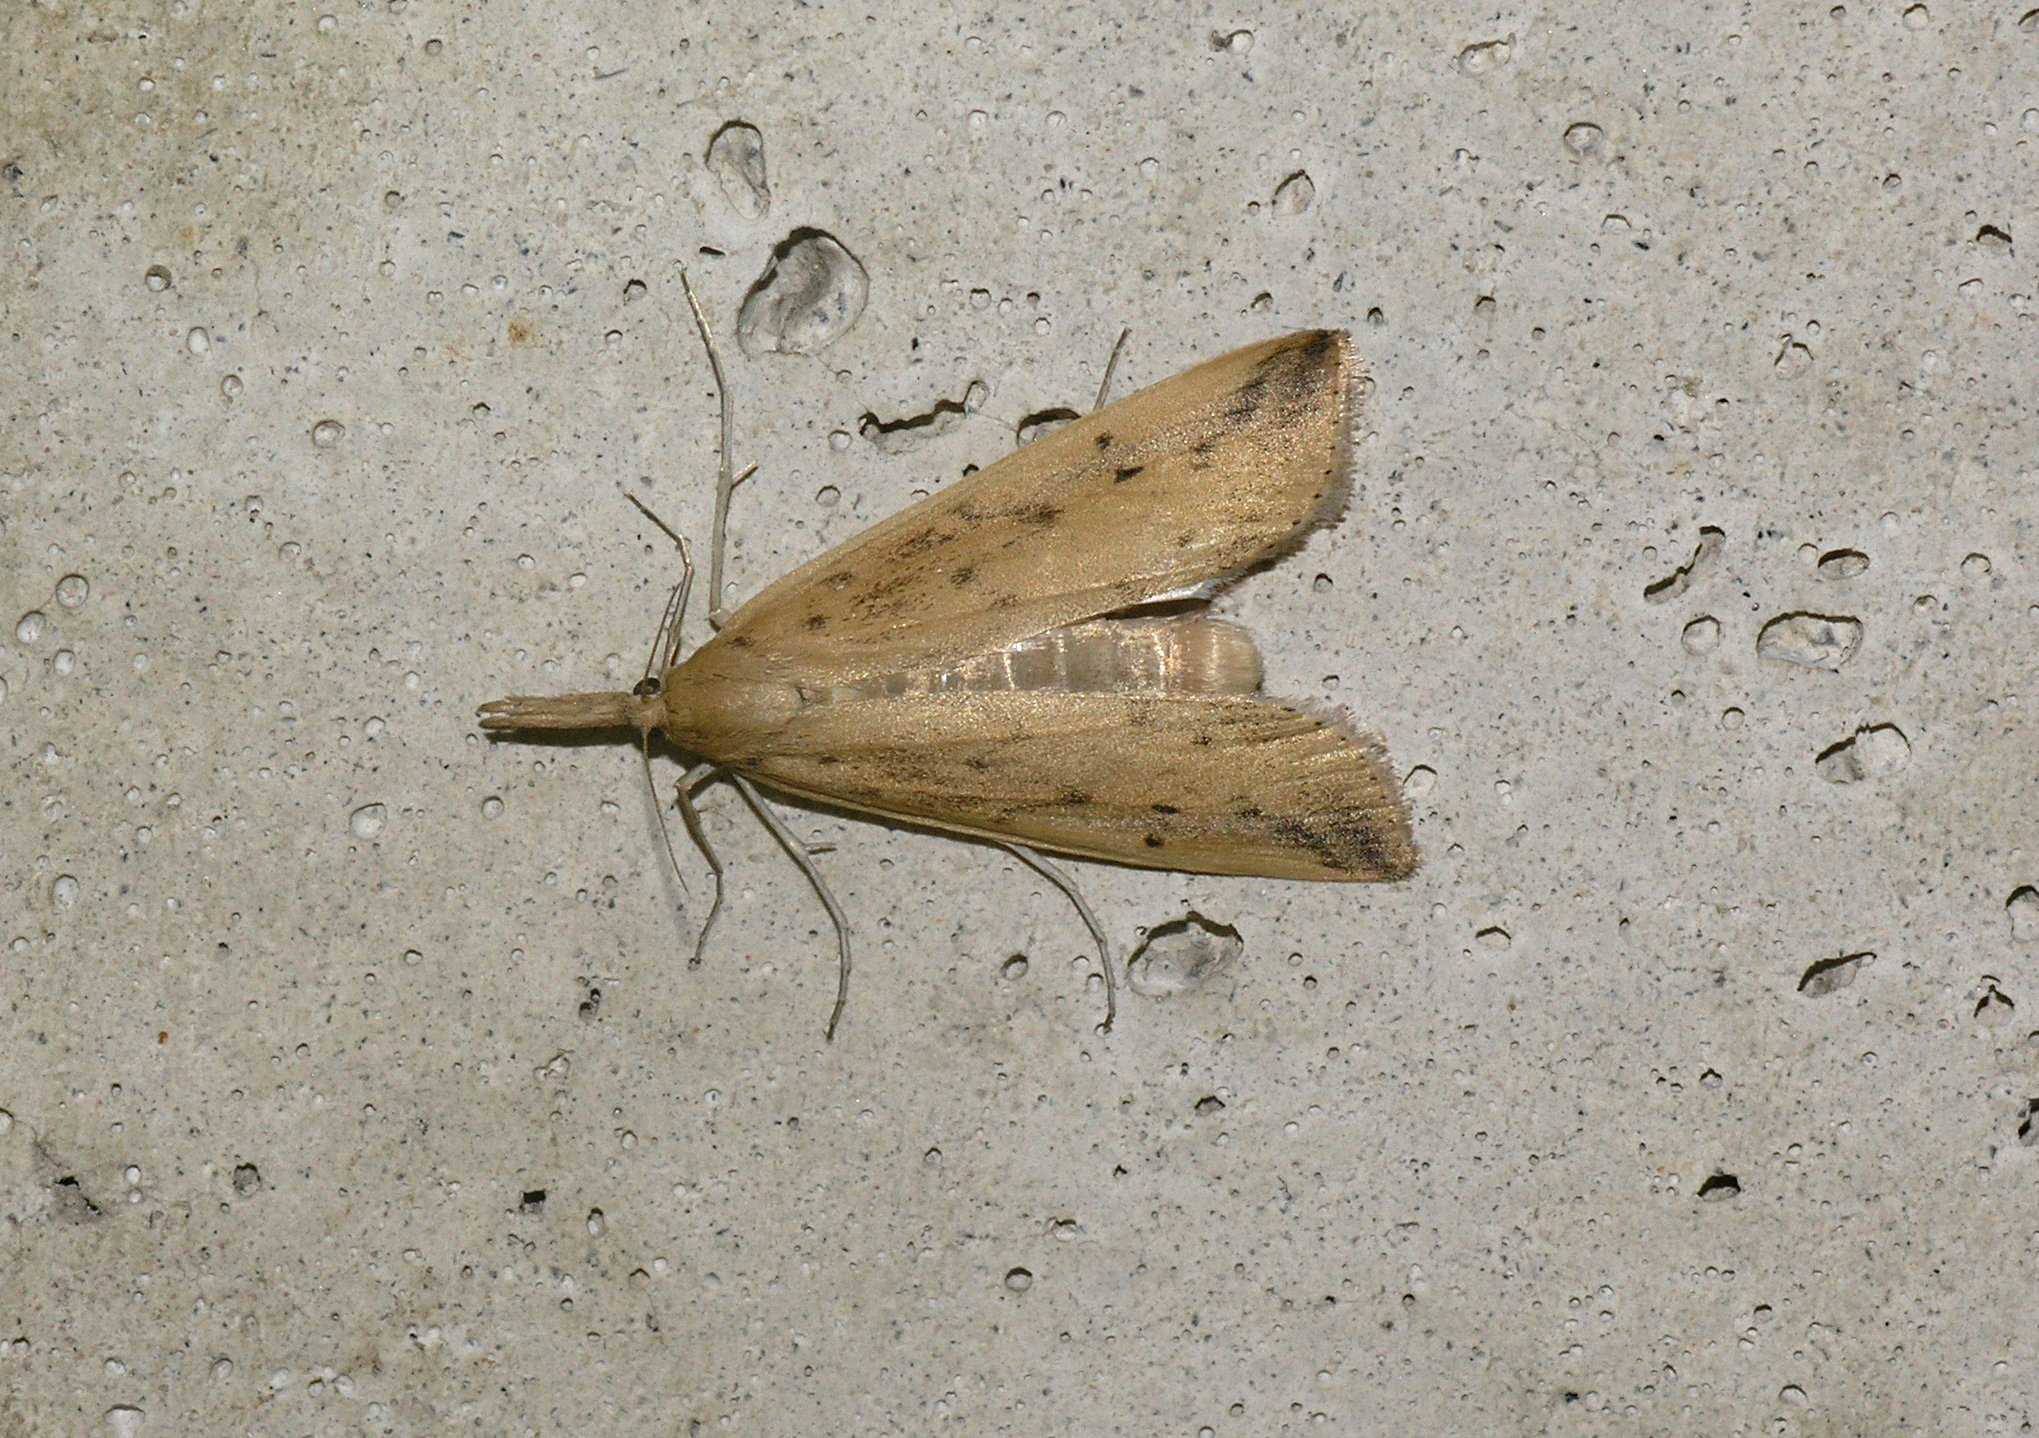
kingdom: Animalia
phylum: Arthropoda
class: Insecta
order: Lepidoptera
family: Crambidae
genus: Schoenobius
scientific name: Schoenobius gigantella
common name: Giant water-veneer
